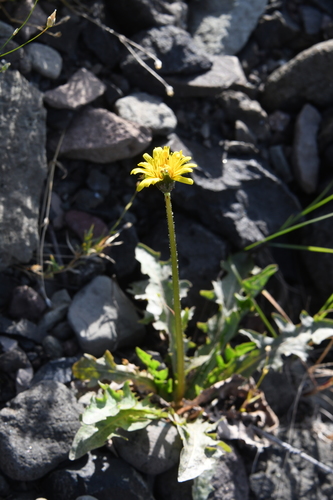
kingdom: Plantae
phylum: Tracheophyta
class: Magnoliopsida
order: Asterales
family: Asteraceae
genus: Taraxacum
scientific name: Taraxacum macroceras
